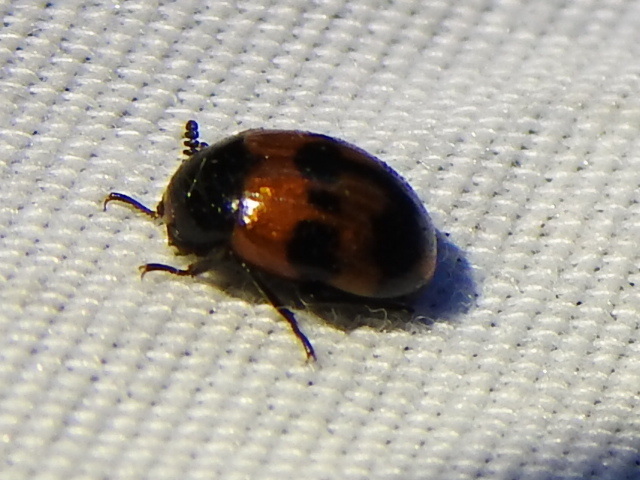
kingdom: Animalia
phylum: Arthropoda
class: Insecta
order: Coleoptera
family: Tenebrionidae
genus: Diaperis
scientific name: Diaperis nigronotata
